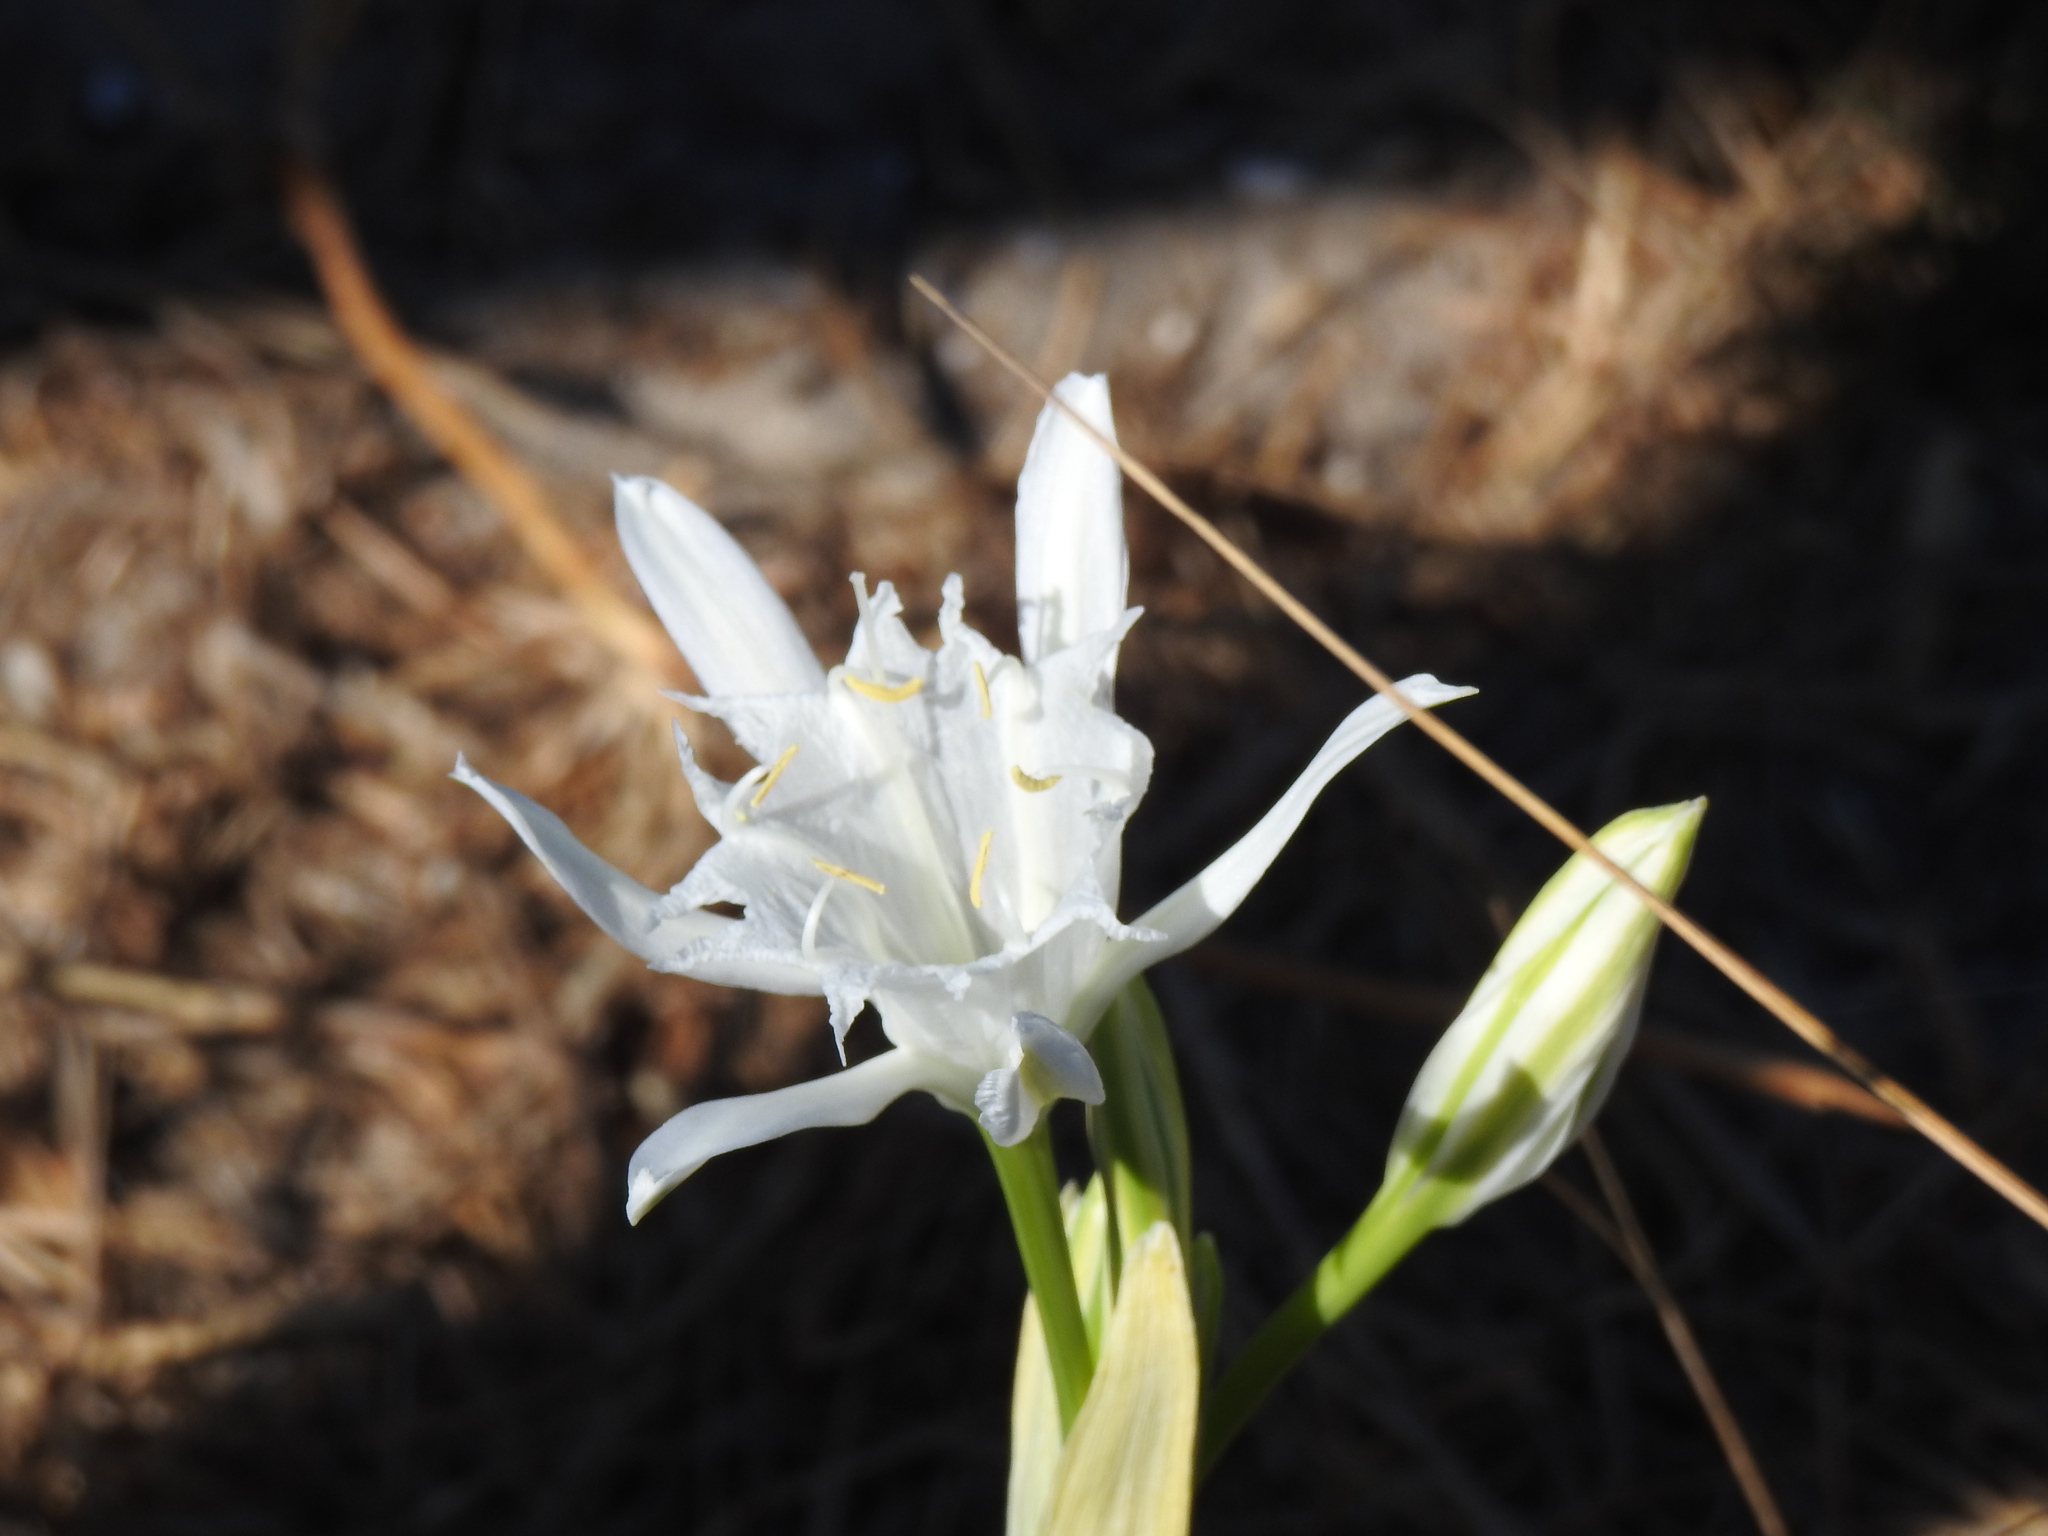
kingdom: Plantae
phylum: Tracheophyta
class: Liliopsida
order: Asparagales
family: Amaryllidaceae
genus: Pancratium
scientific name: Pancratium maritimum
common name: Sea-daffodil
